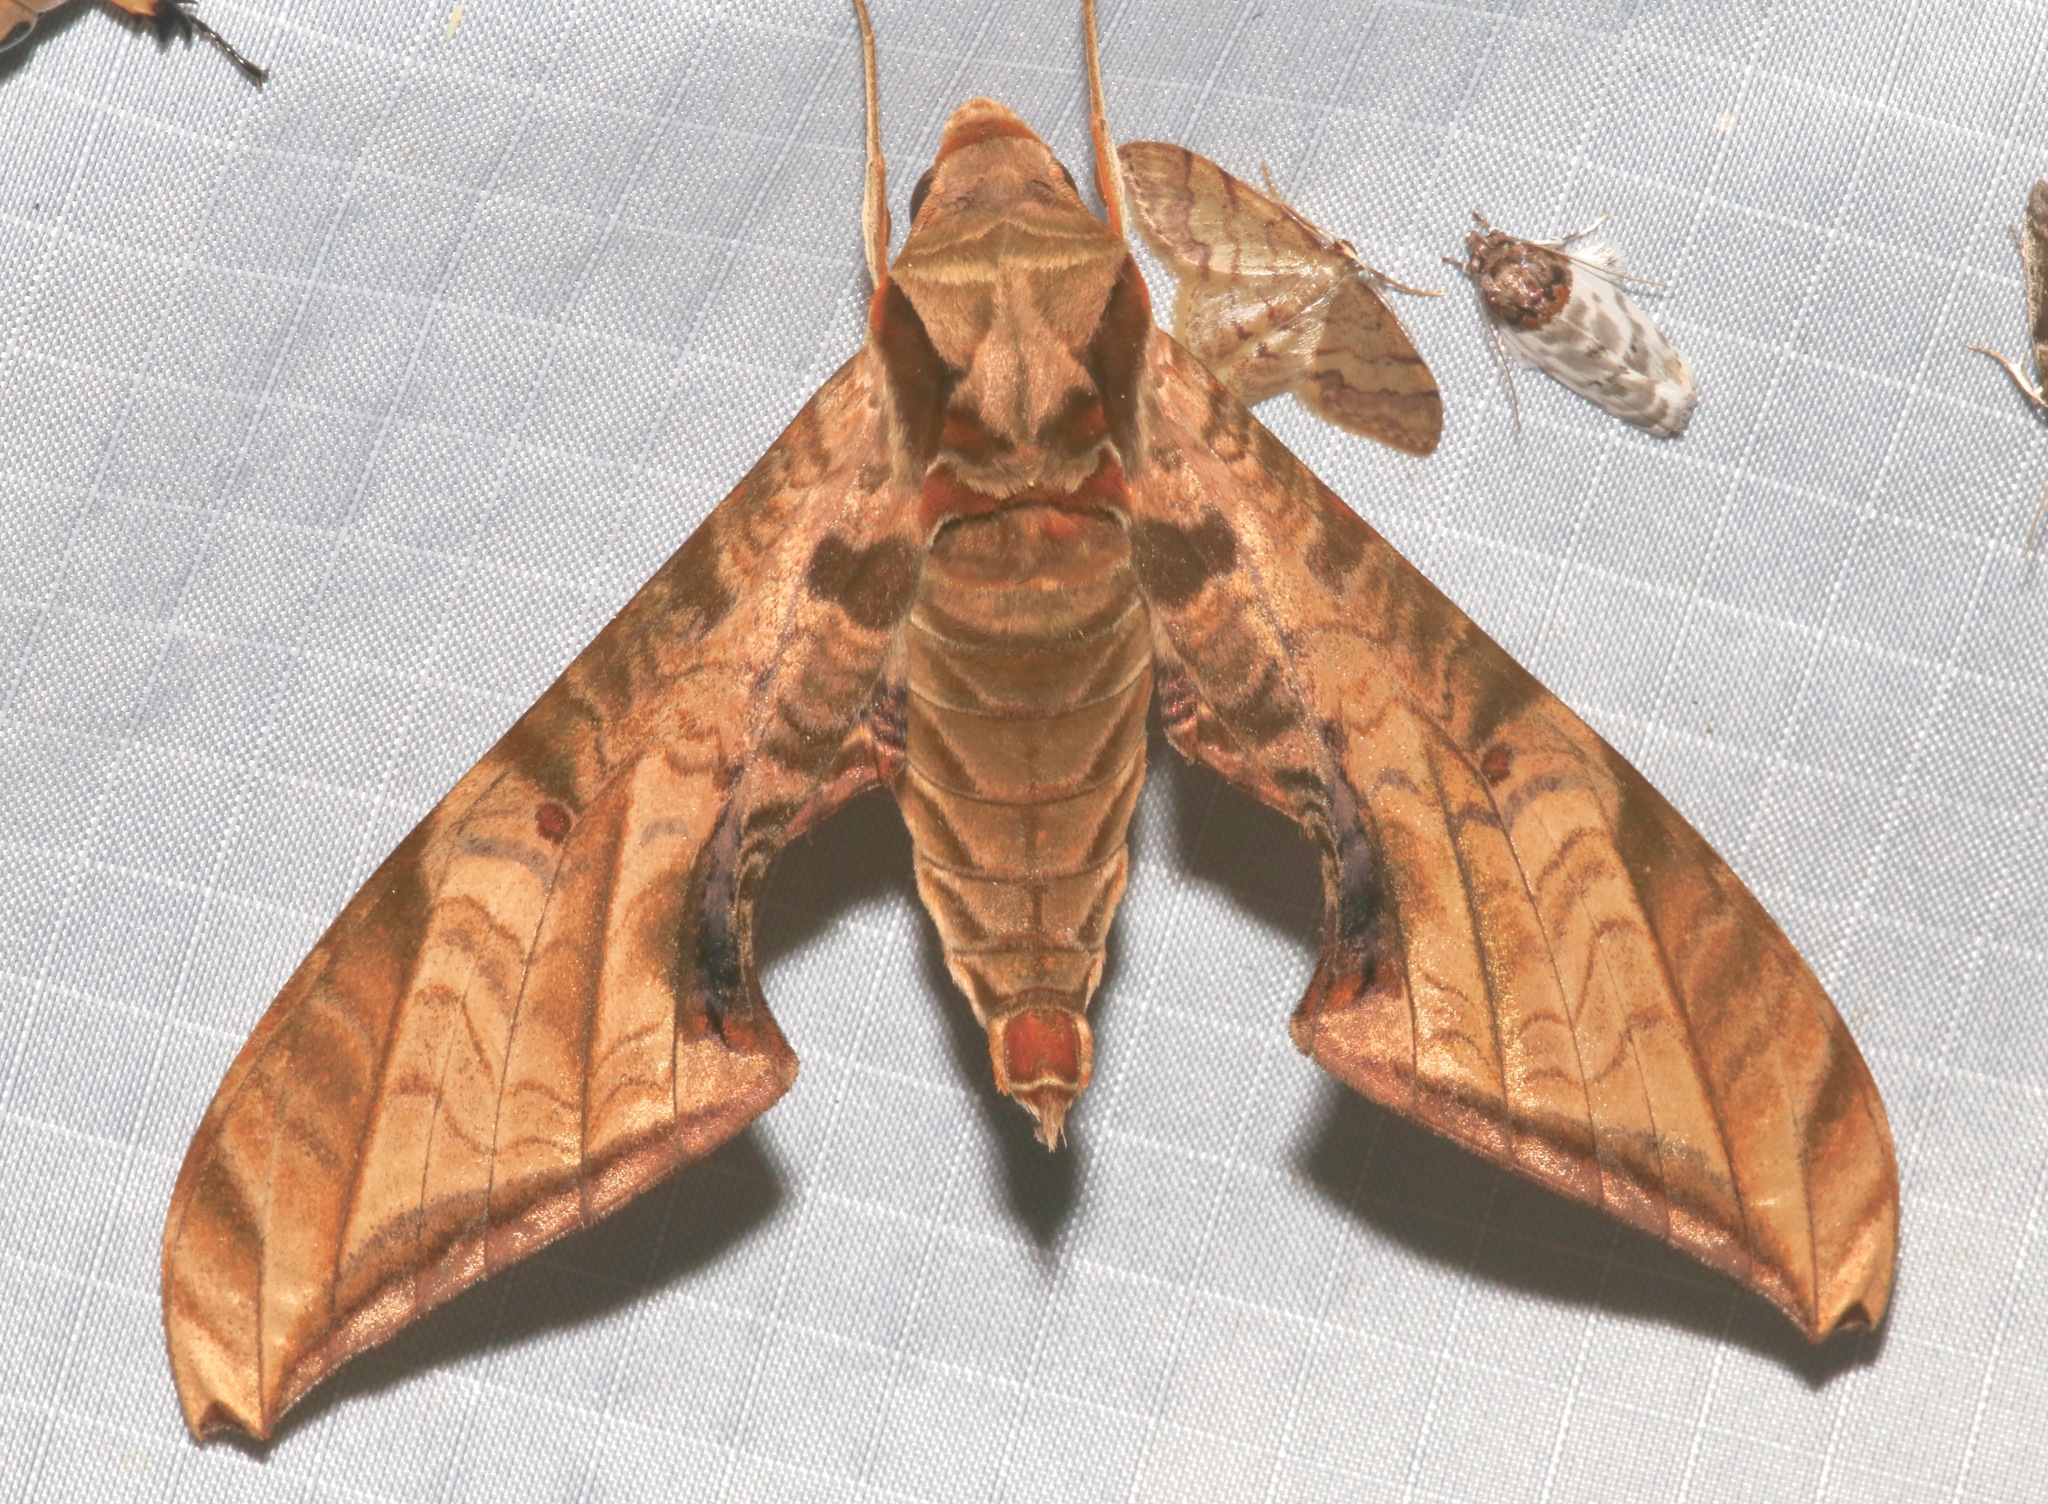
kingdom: Animalia
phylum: Arthropoda
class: Insecta
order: Lepidoptera
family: Sphingidae
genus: Protambulyx
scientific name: Protambulyx euryalus
